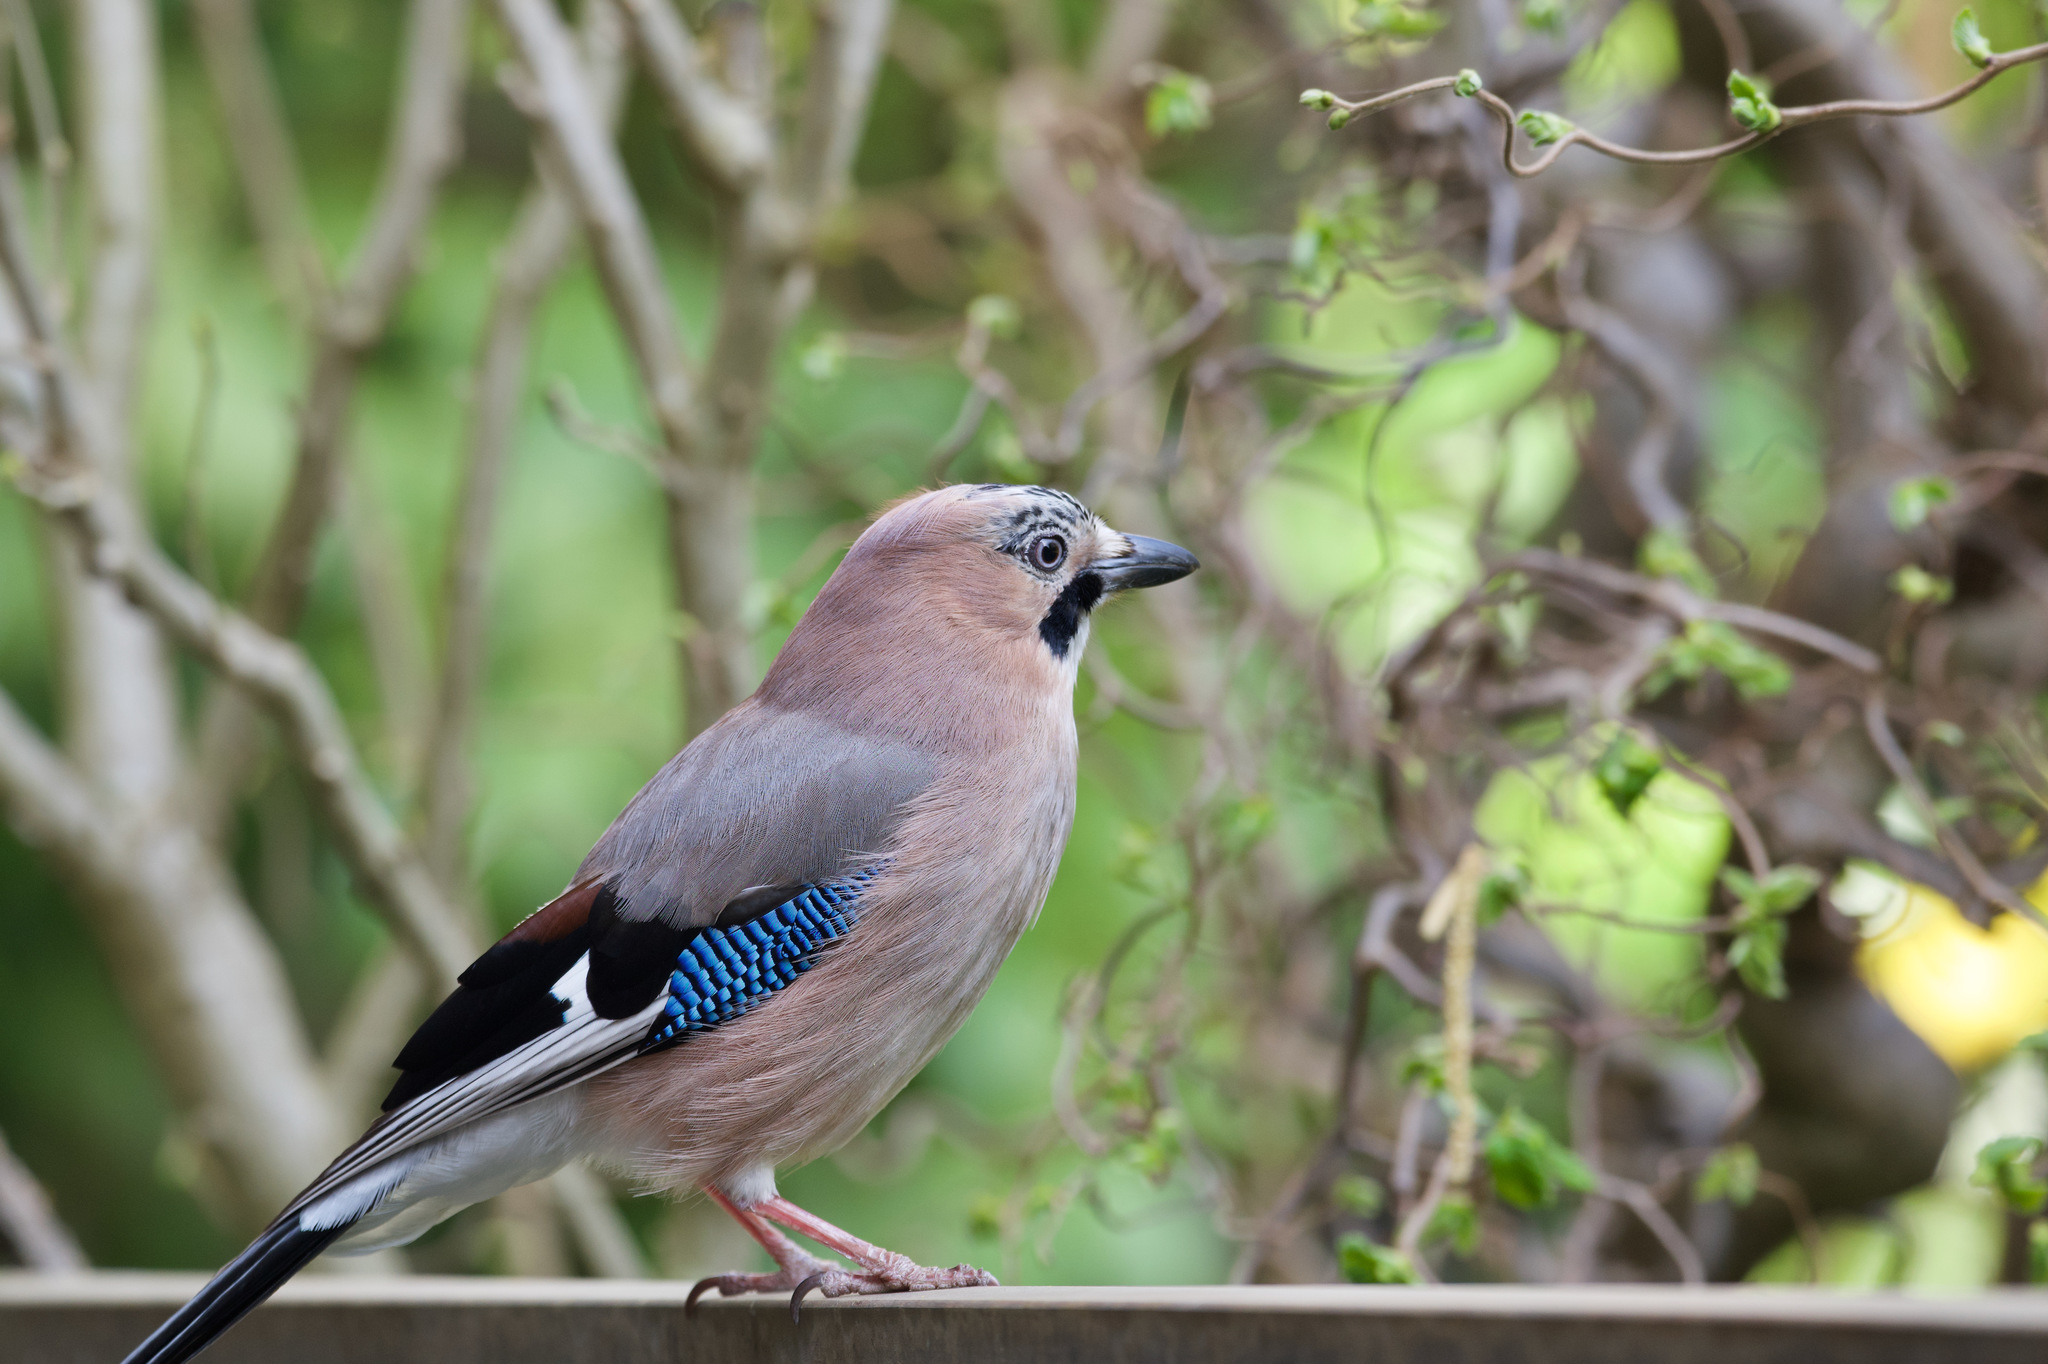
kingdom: Animalia
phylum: Chordata
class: Aves
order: Passeriformes
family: Corvidae
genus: Garrulus
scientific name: Garrulus glandarius
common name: Eurasian jay
